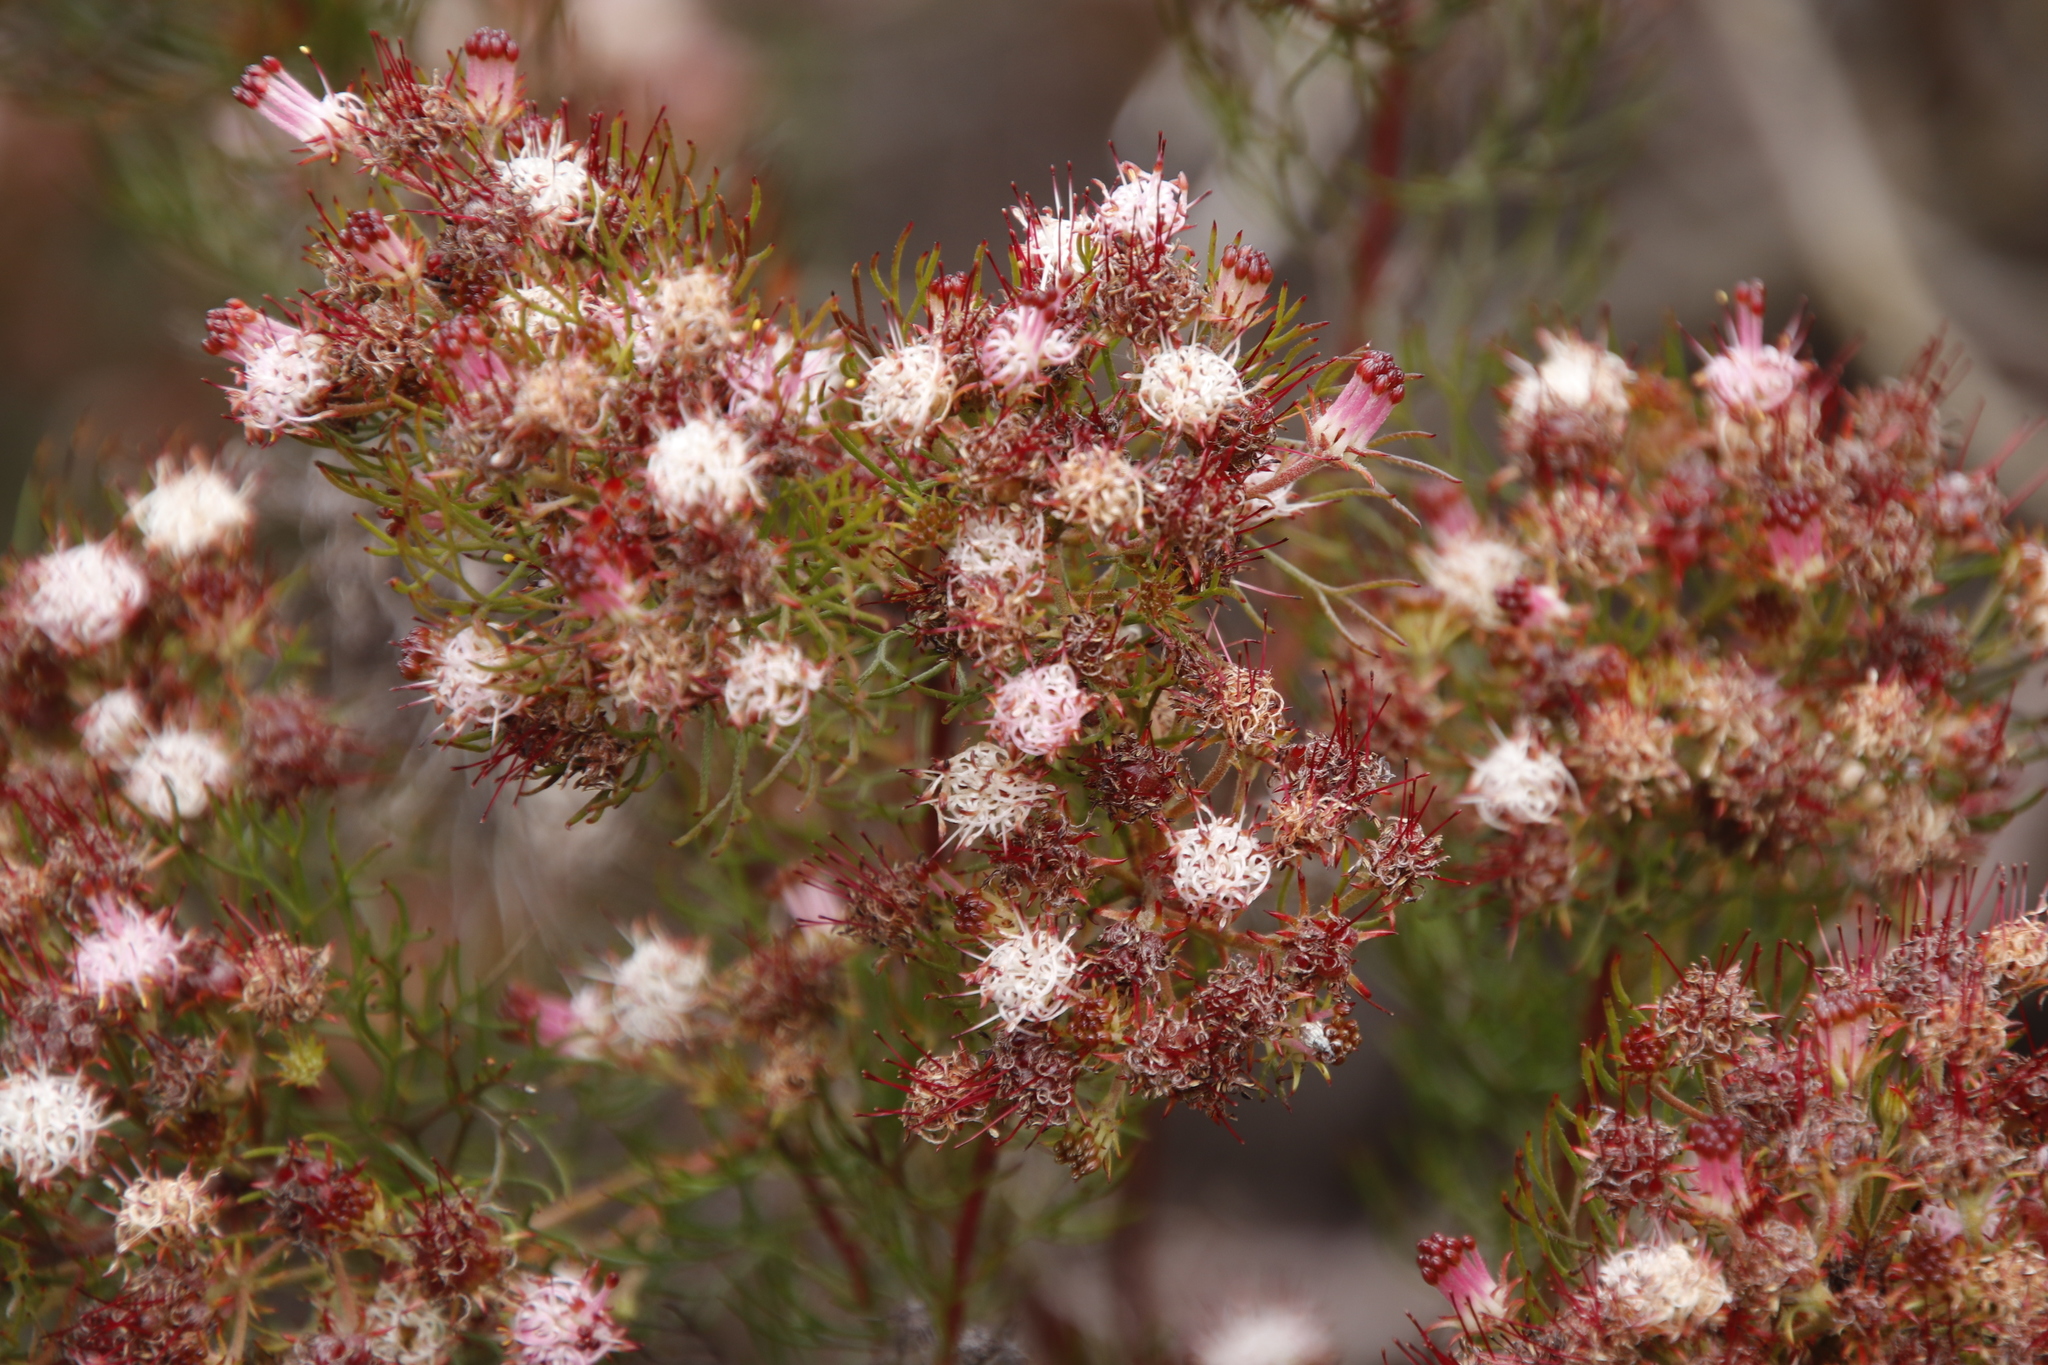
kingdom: Plantae
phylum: Tracheophyta
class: Magnoliopsida
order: Proteales
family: Proteaceae
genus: Serruria
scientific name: Serruria fasciflora
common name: Common pin spiderhead
